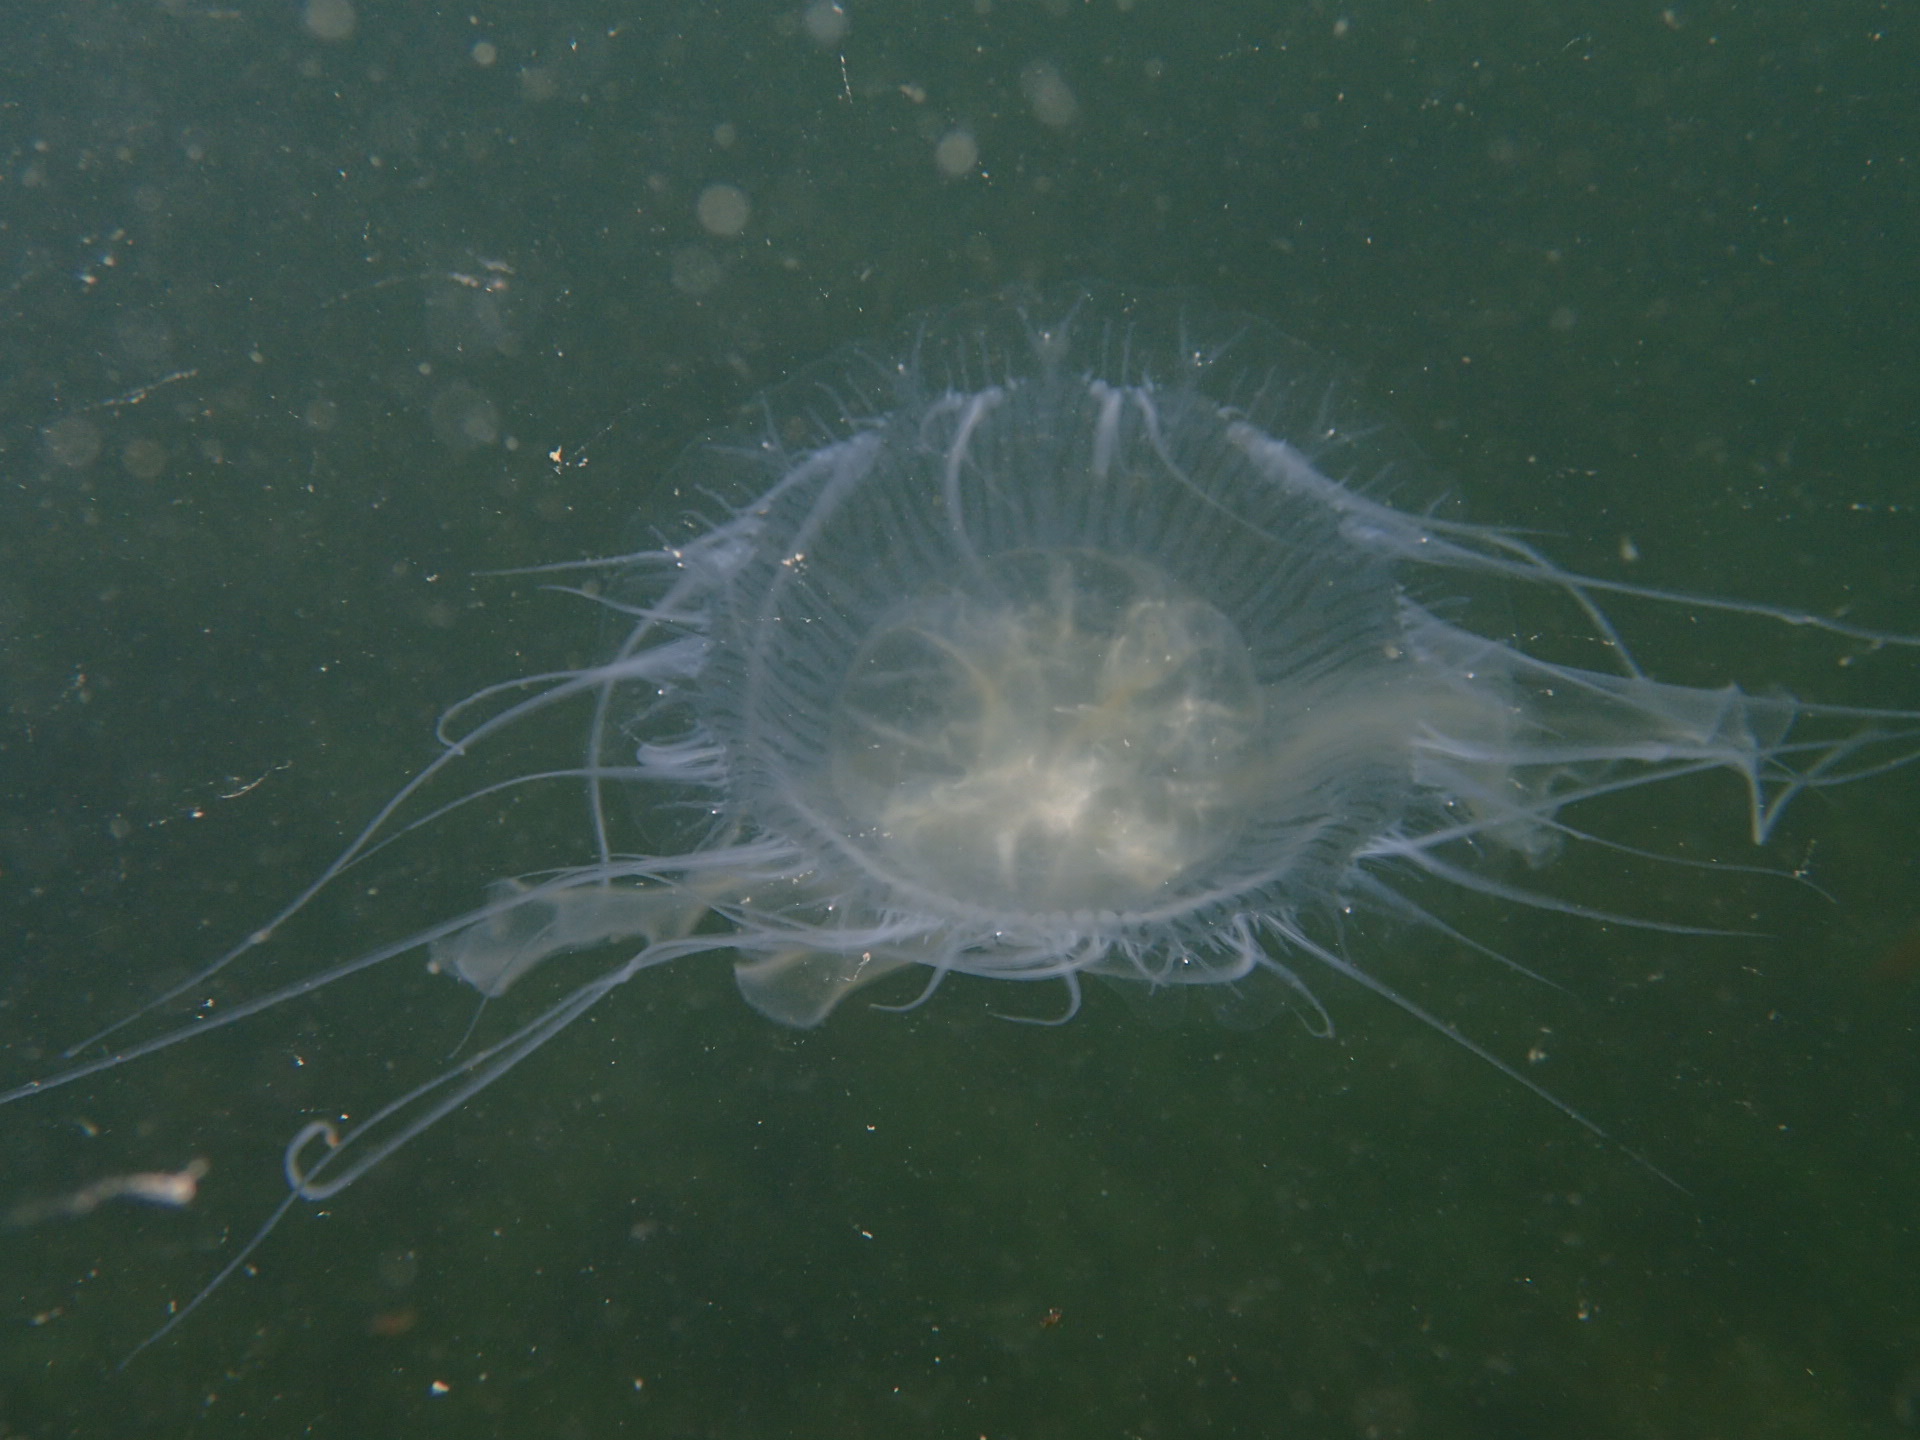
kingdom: Animalia
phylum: Cnidaria
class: Scyphozoa
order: Semaeostomeae
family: Phacellophoridae
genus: Phacellophora
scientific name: Phacellophora camtschatica
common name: Fried-egg jellyfish
